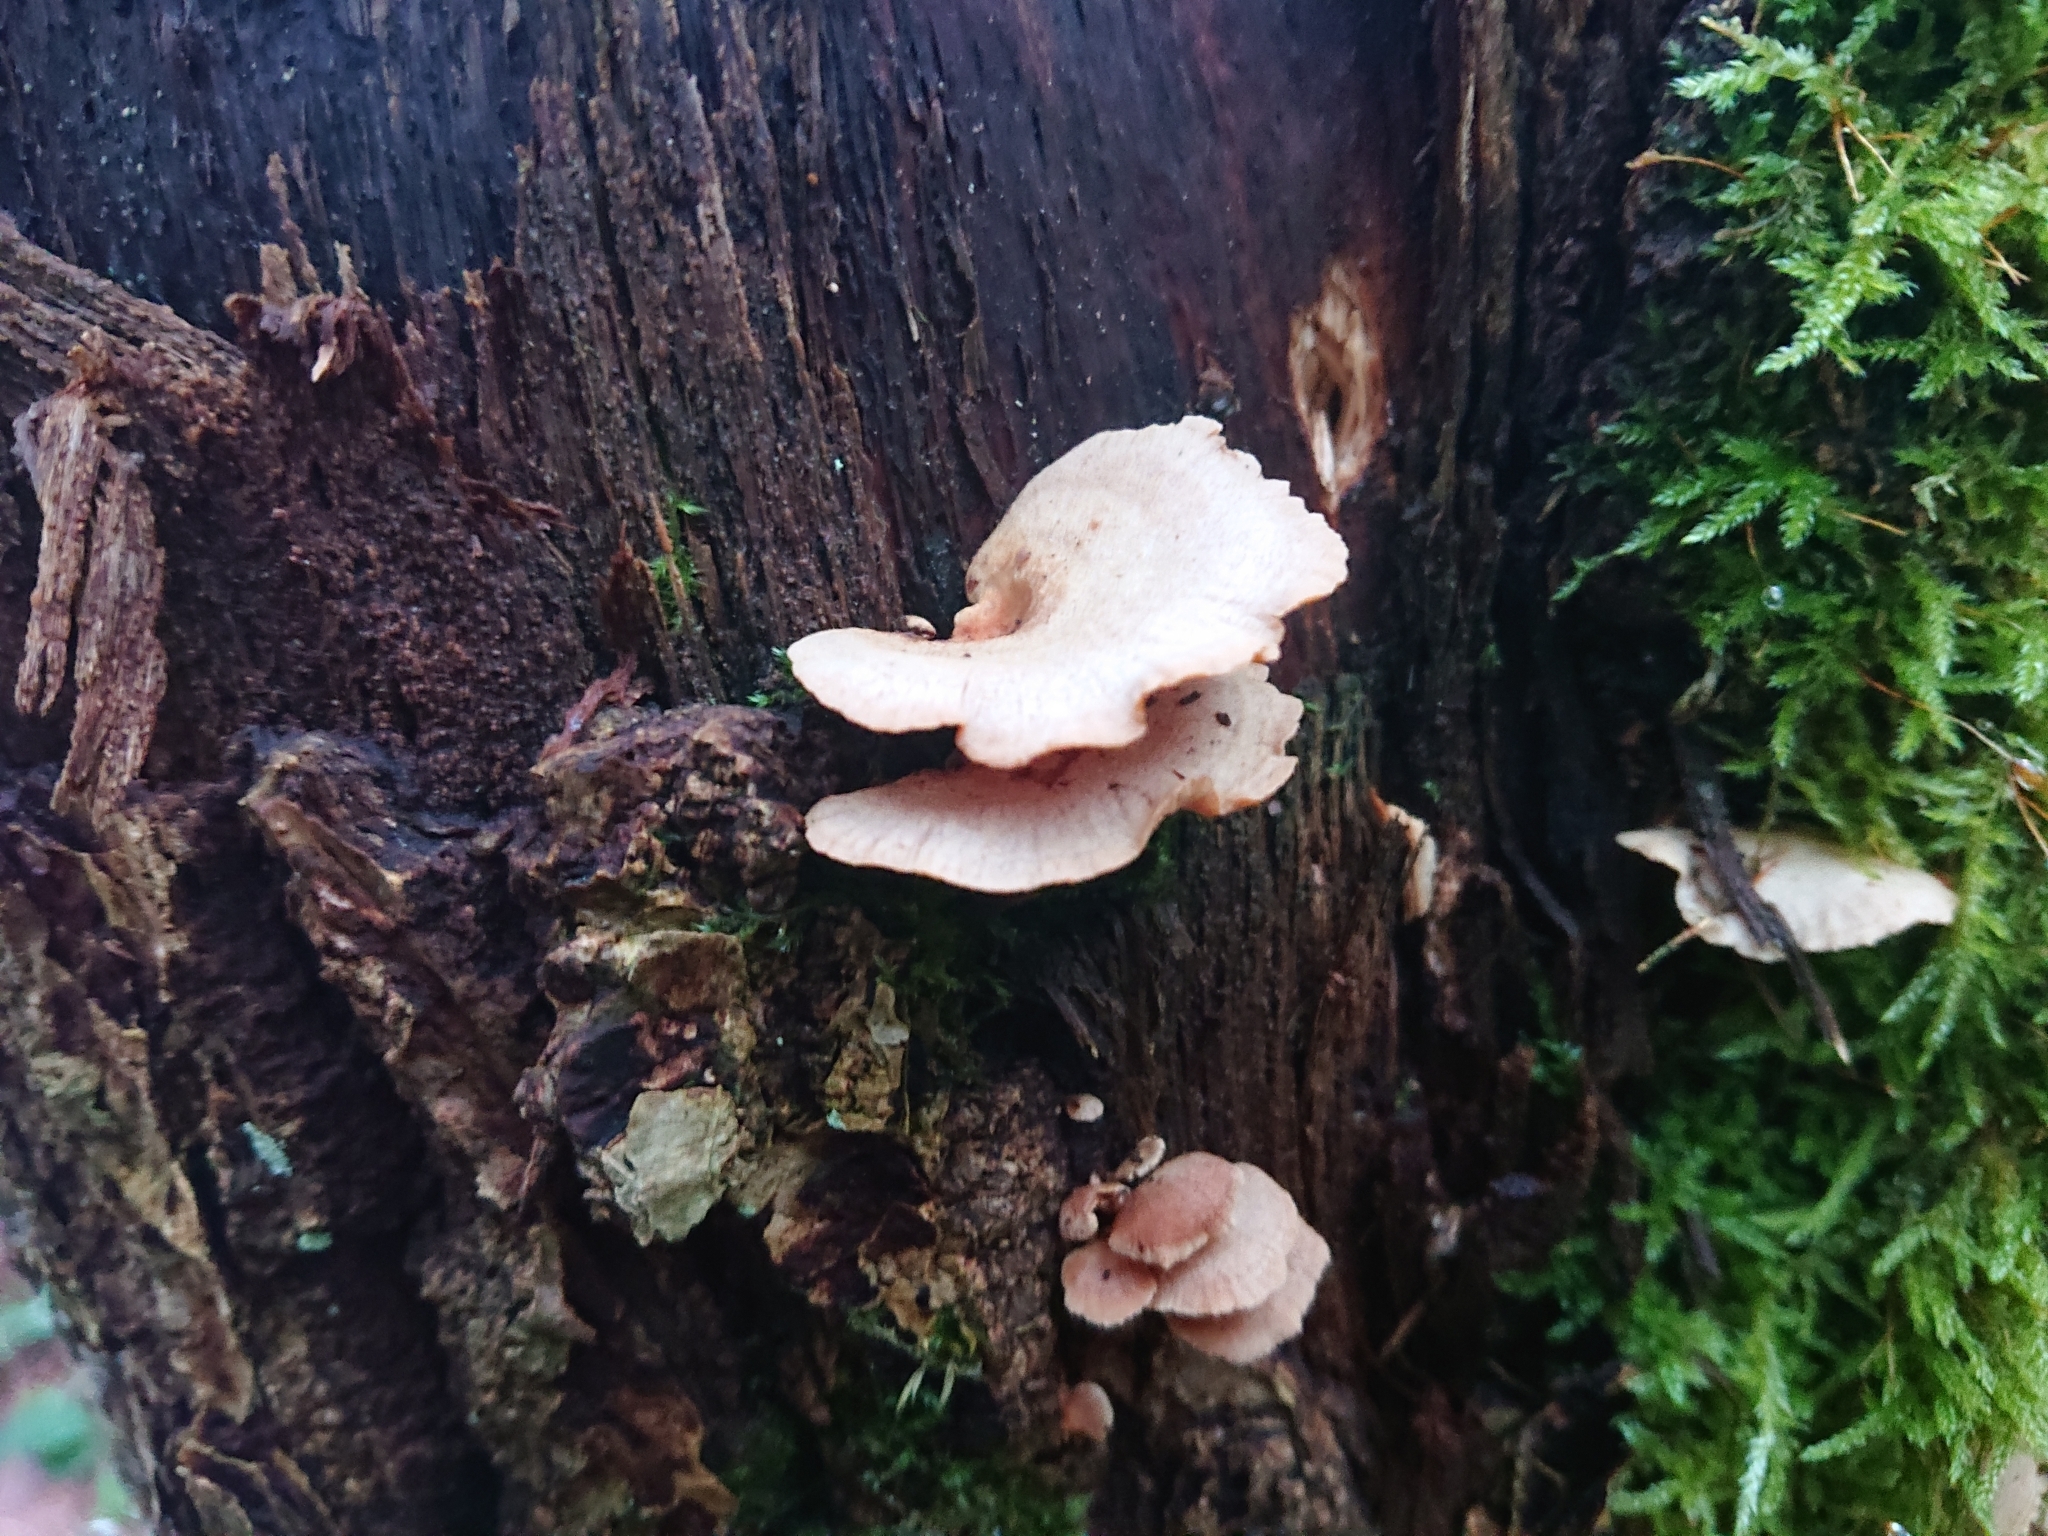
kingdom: Fungi
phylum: Basidiomycota
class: Agaricomycetes
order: Agaricales
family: Mycenaceae
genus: Panellus
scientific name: Panellus stipticus
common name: Bitter oysterling
